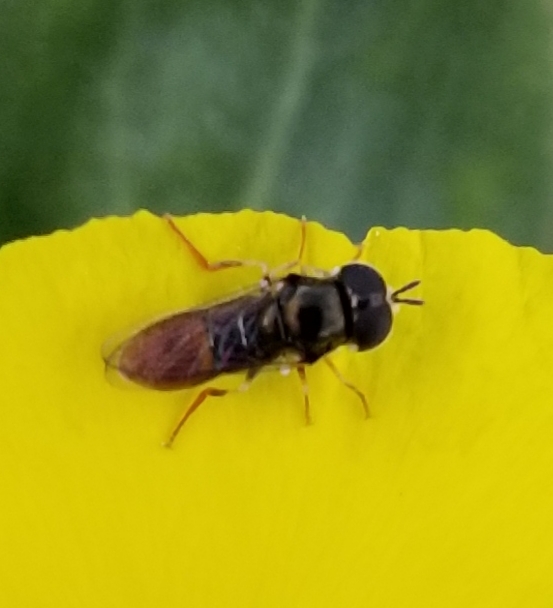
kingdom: Animalia
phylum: Arthropoda
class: Insecta
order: Diptera
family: Syrphidae
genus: Paragus
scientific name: Paragus haemorrhous
